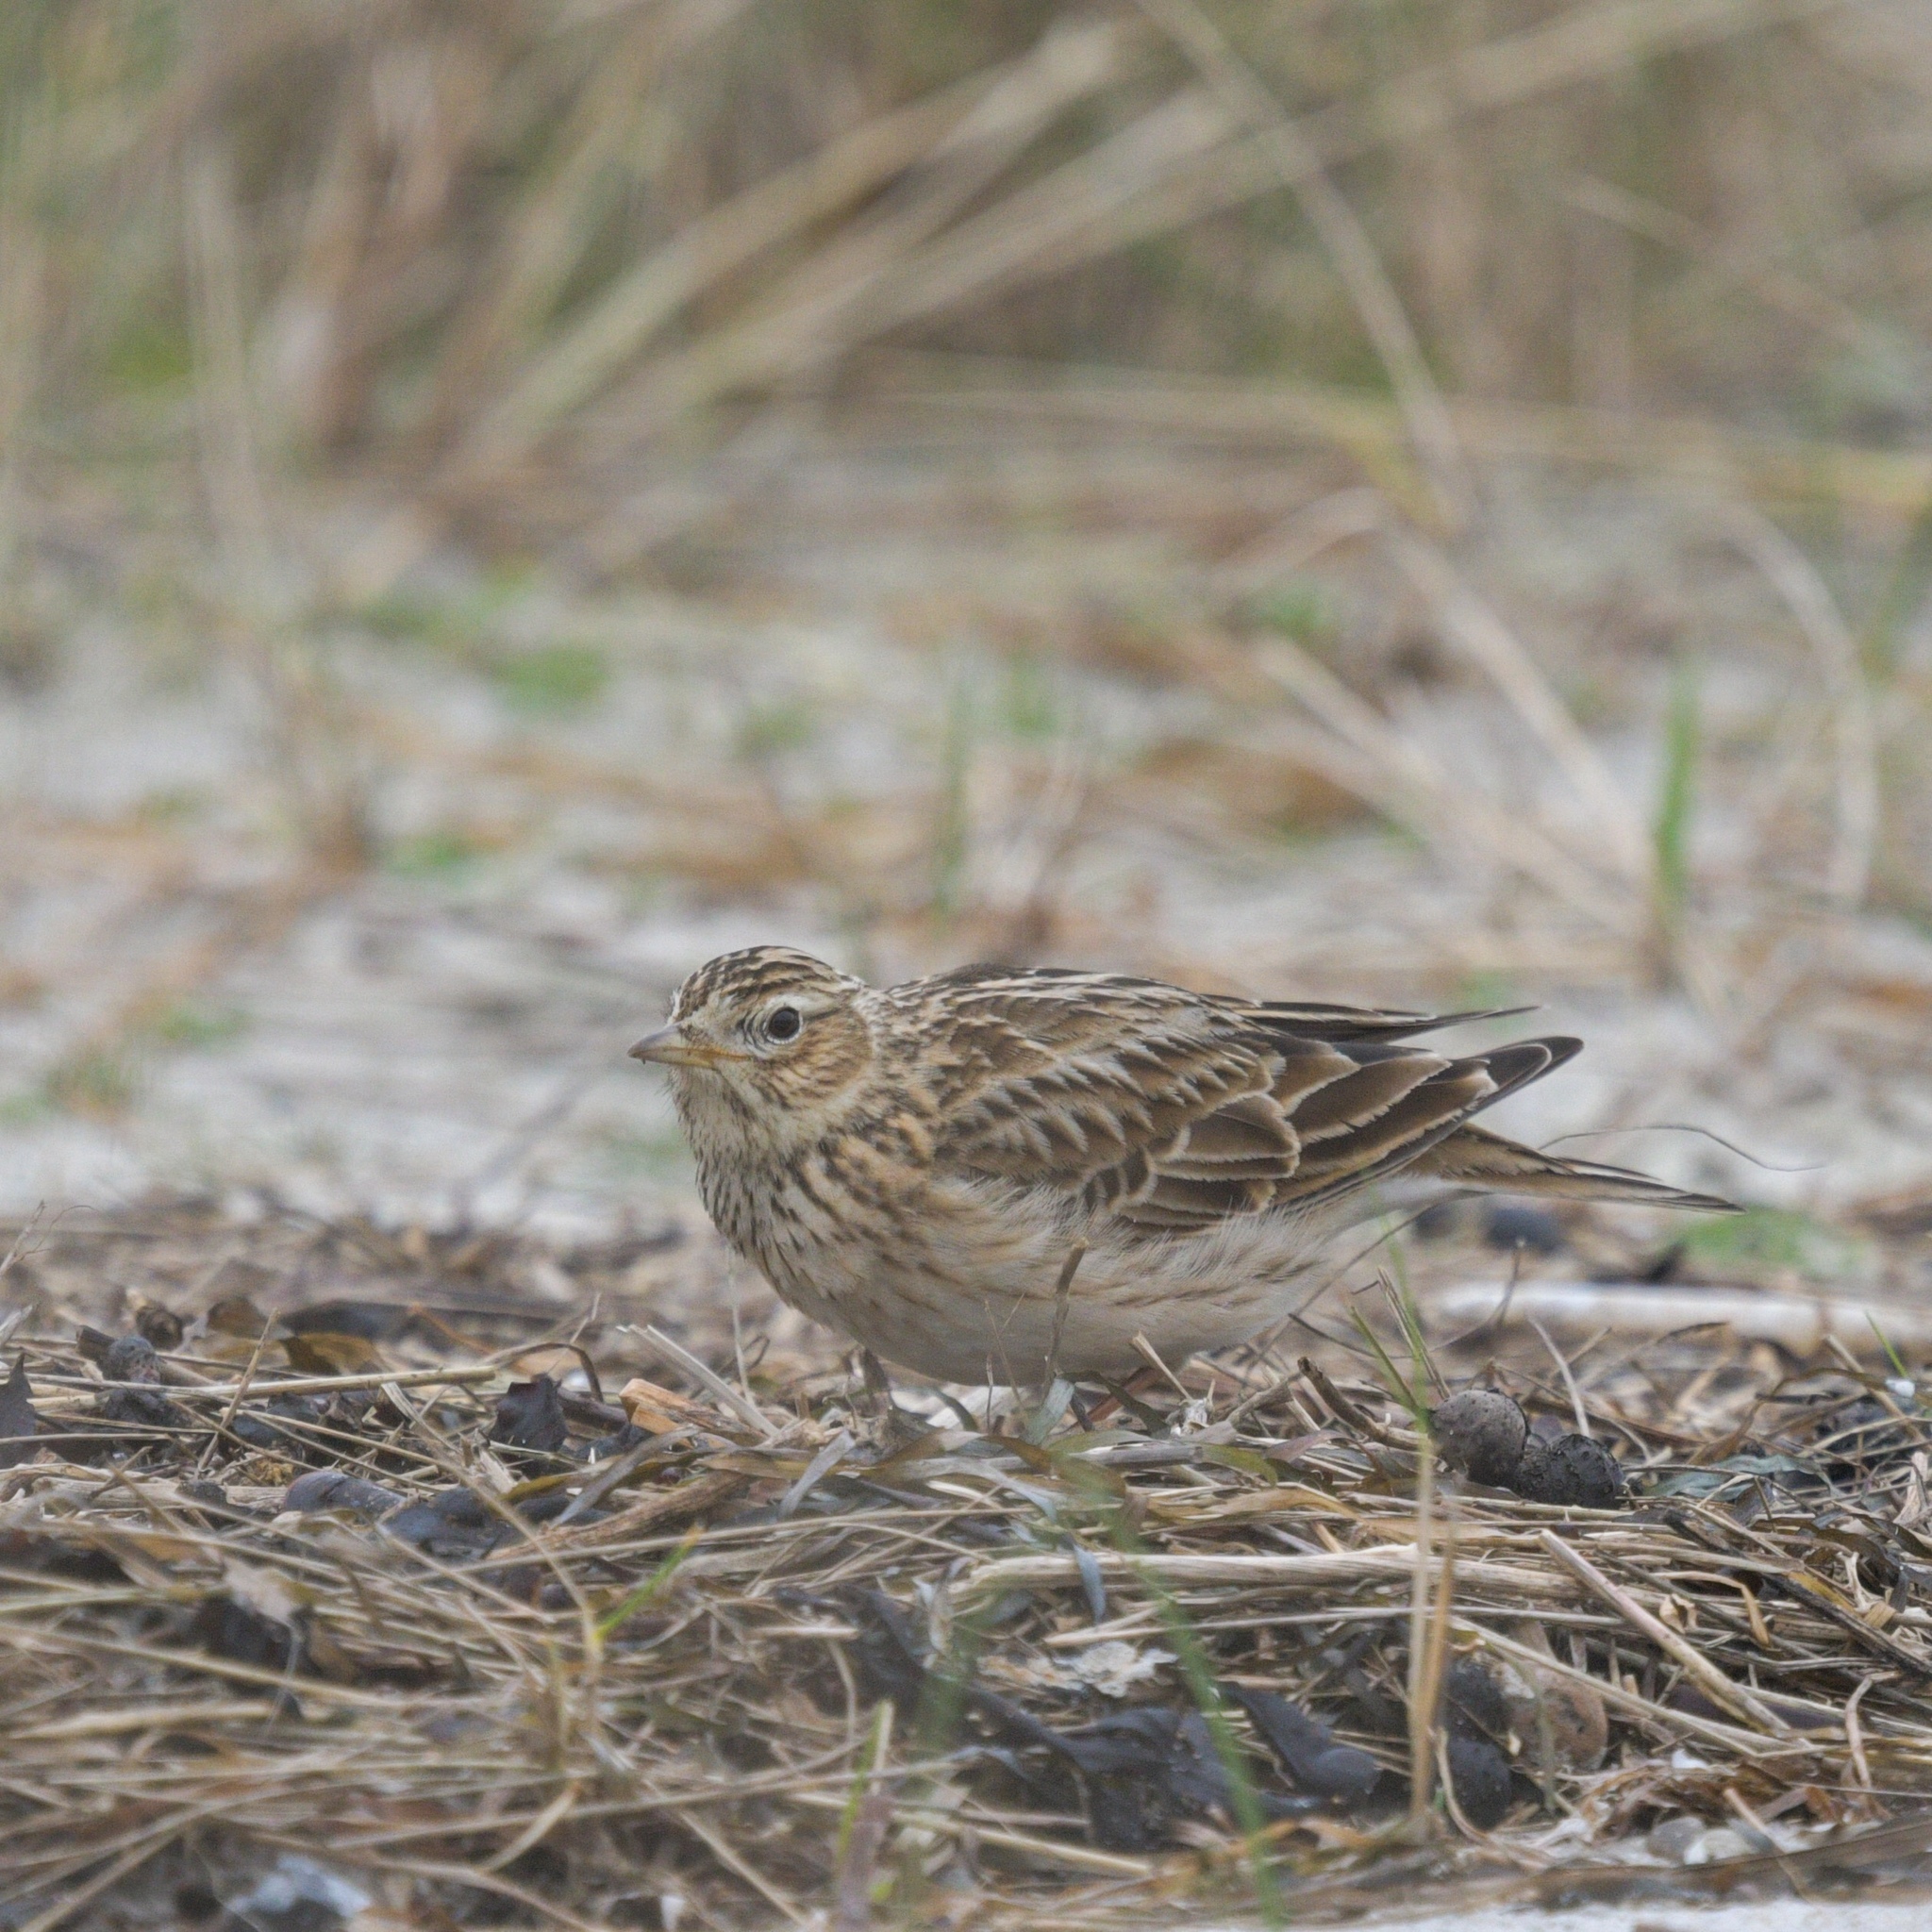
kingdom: Animalia
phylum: Chordata
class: Aves
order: Passeriformes
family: Alaudidae
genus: Alauda
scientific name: Alauda arvensis
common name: Eurasian skylark
